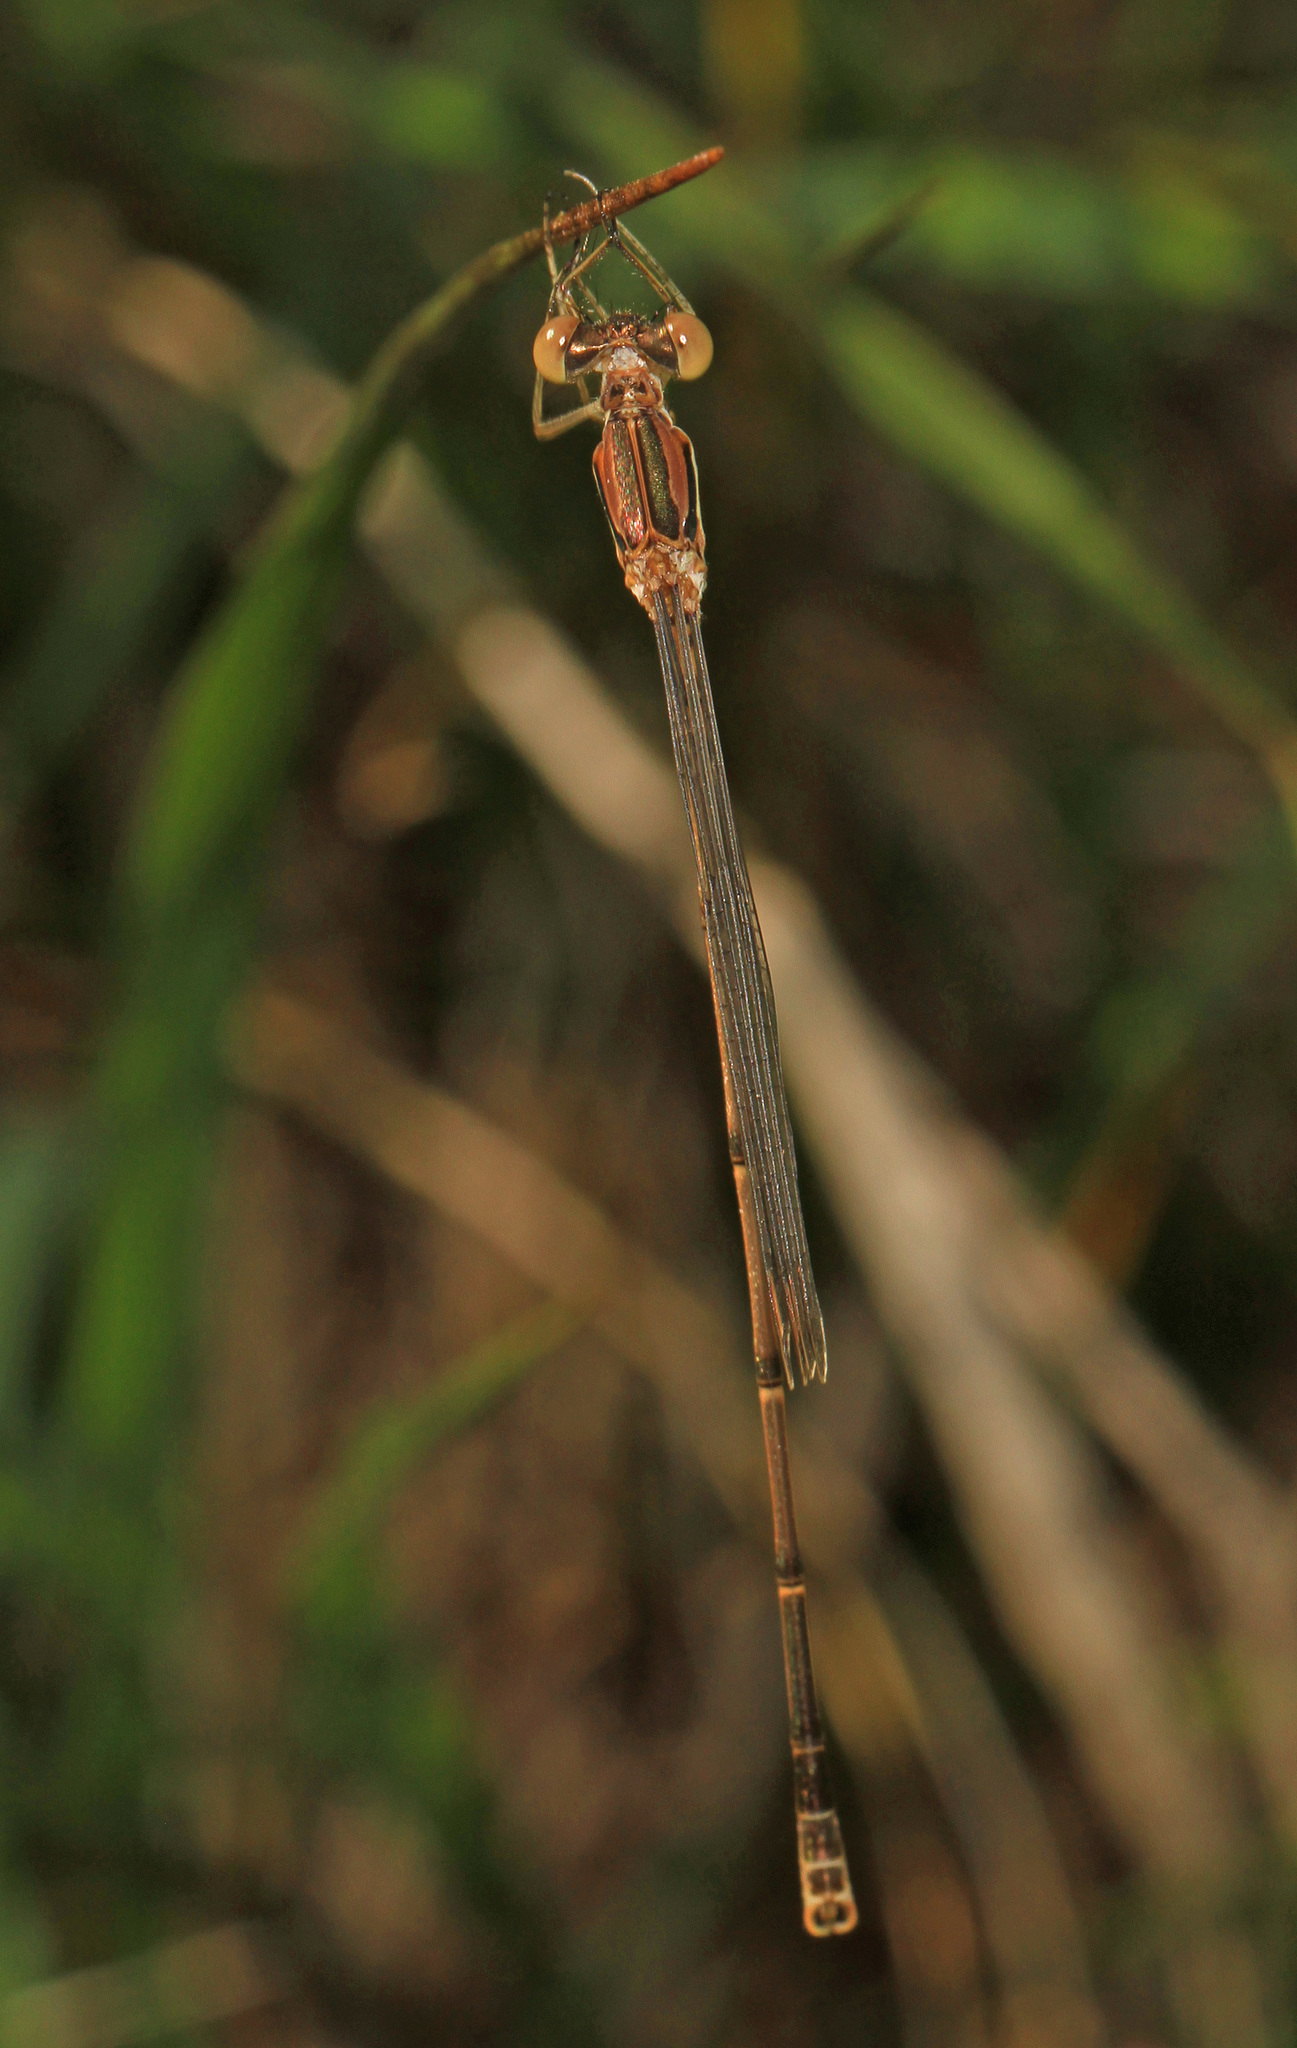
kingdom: Animalia
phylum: Arthropoda
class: Insecta
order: Odonata
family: Lestidae
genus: Lestes
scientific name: Lestes rectangularis
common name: Slender spreadwing
